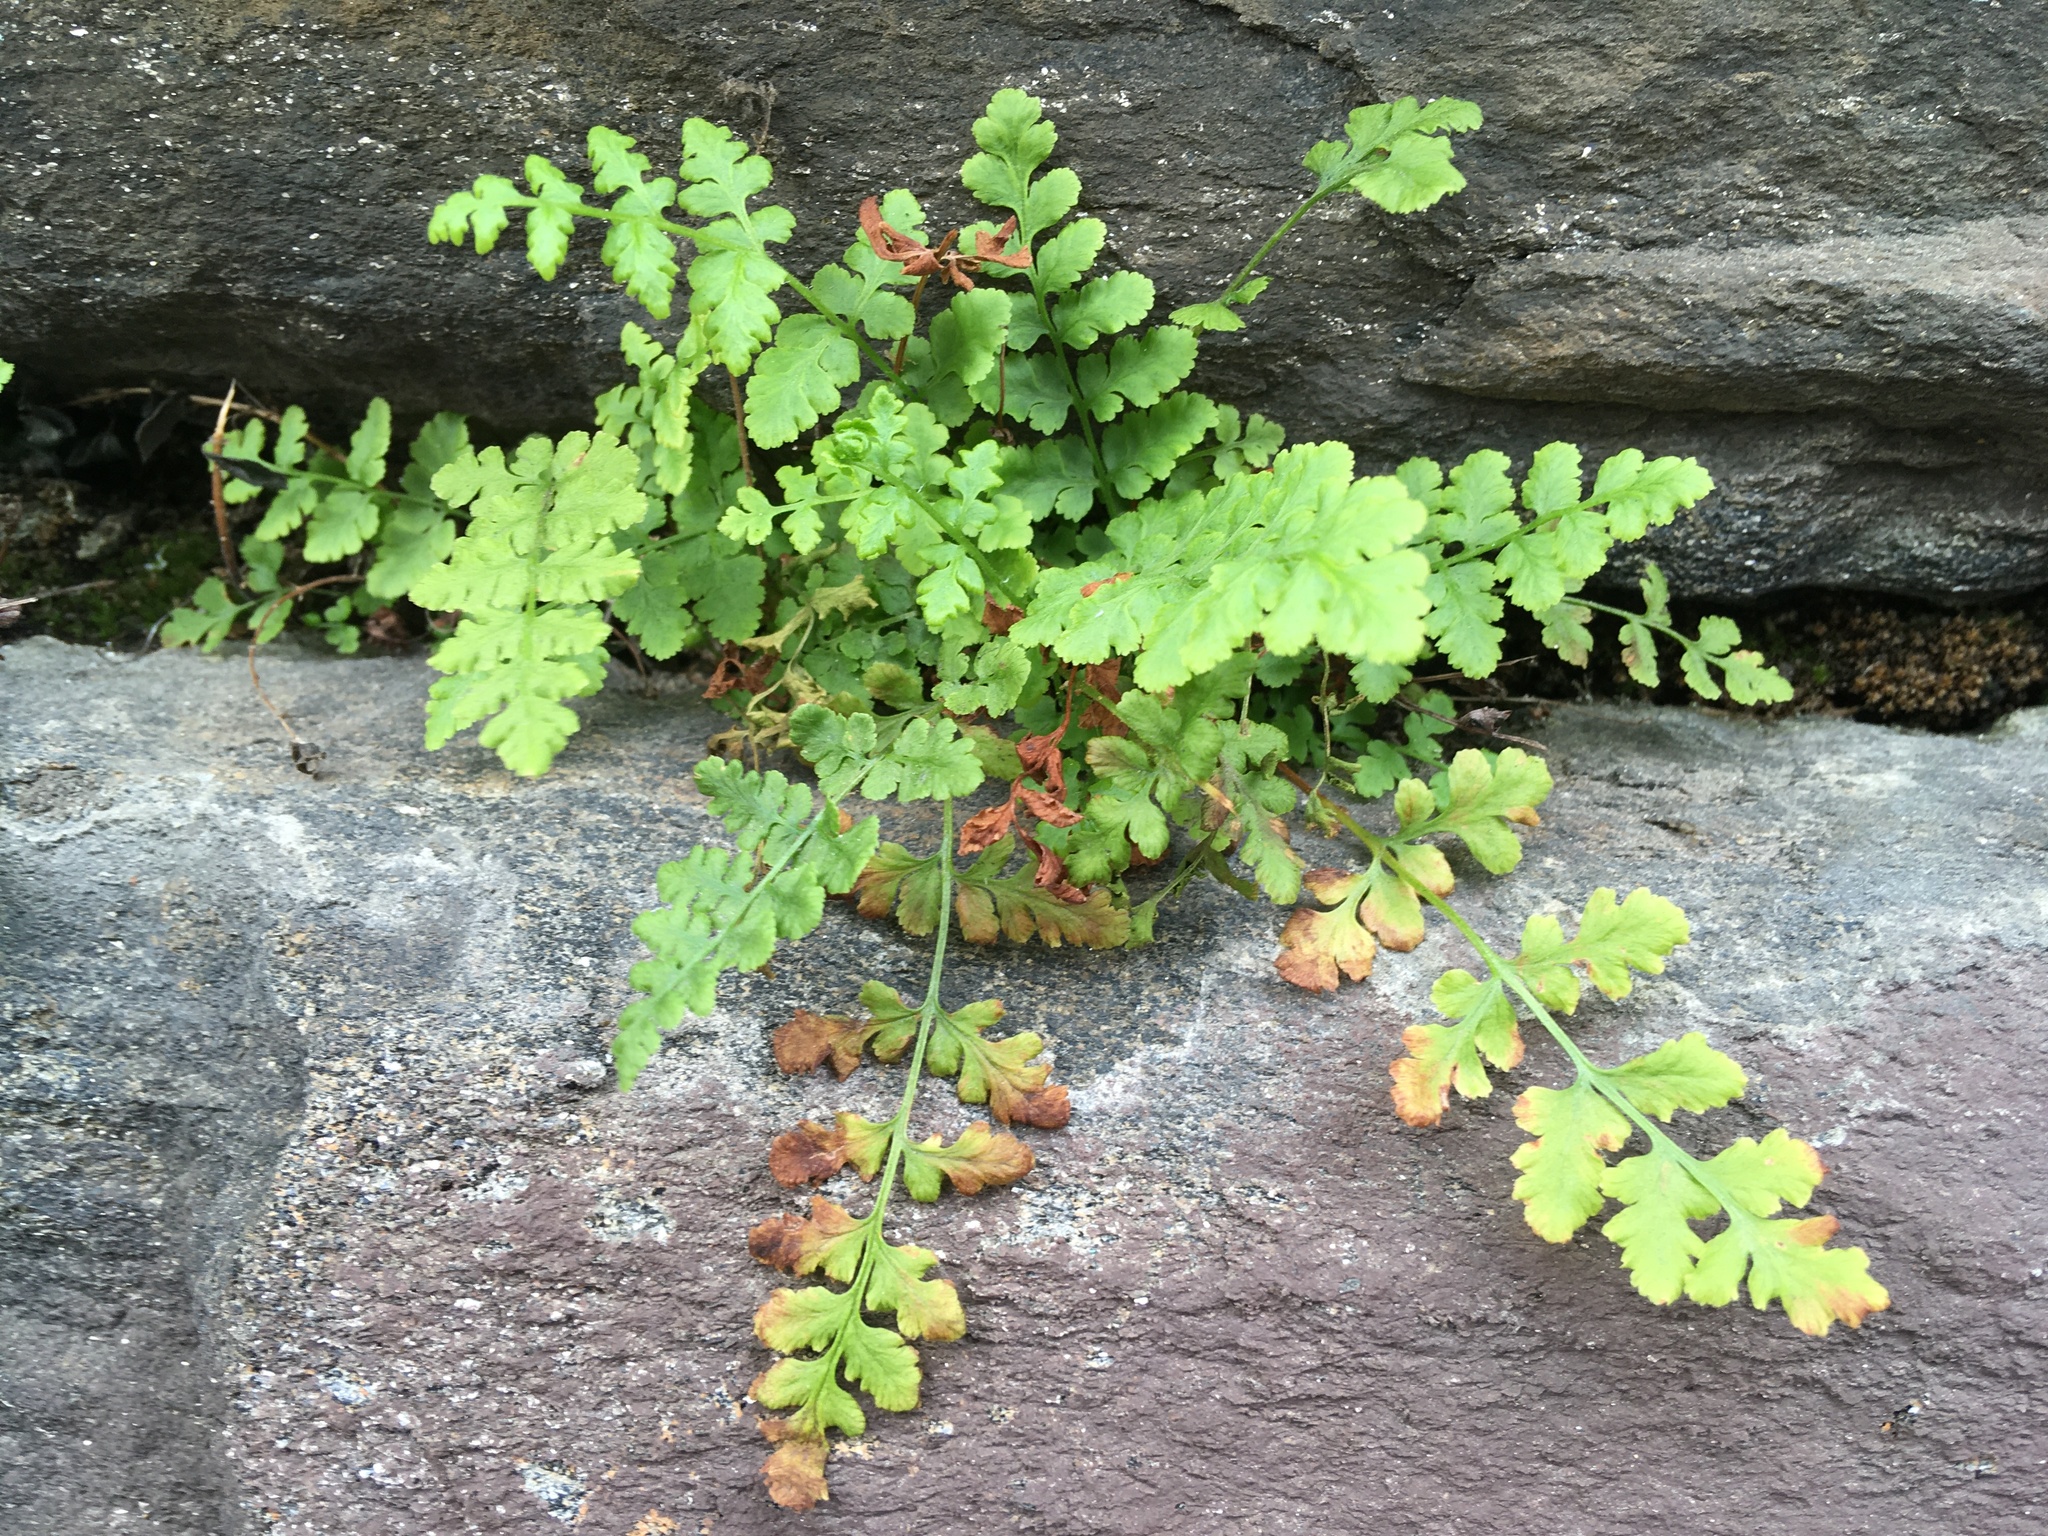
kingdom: Plantae
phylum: Tracheophyta
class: Polypodiopsida
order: Polypodiales
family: Woodsiaceae
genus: Physematium
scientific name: Physematium obtusum
